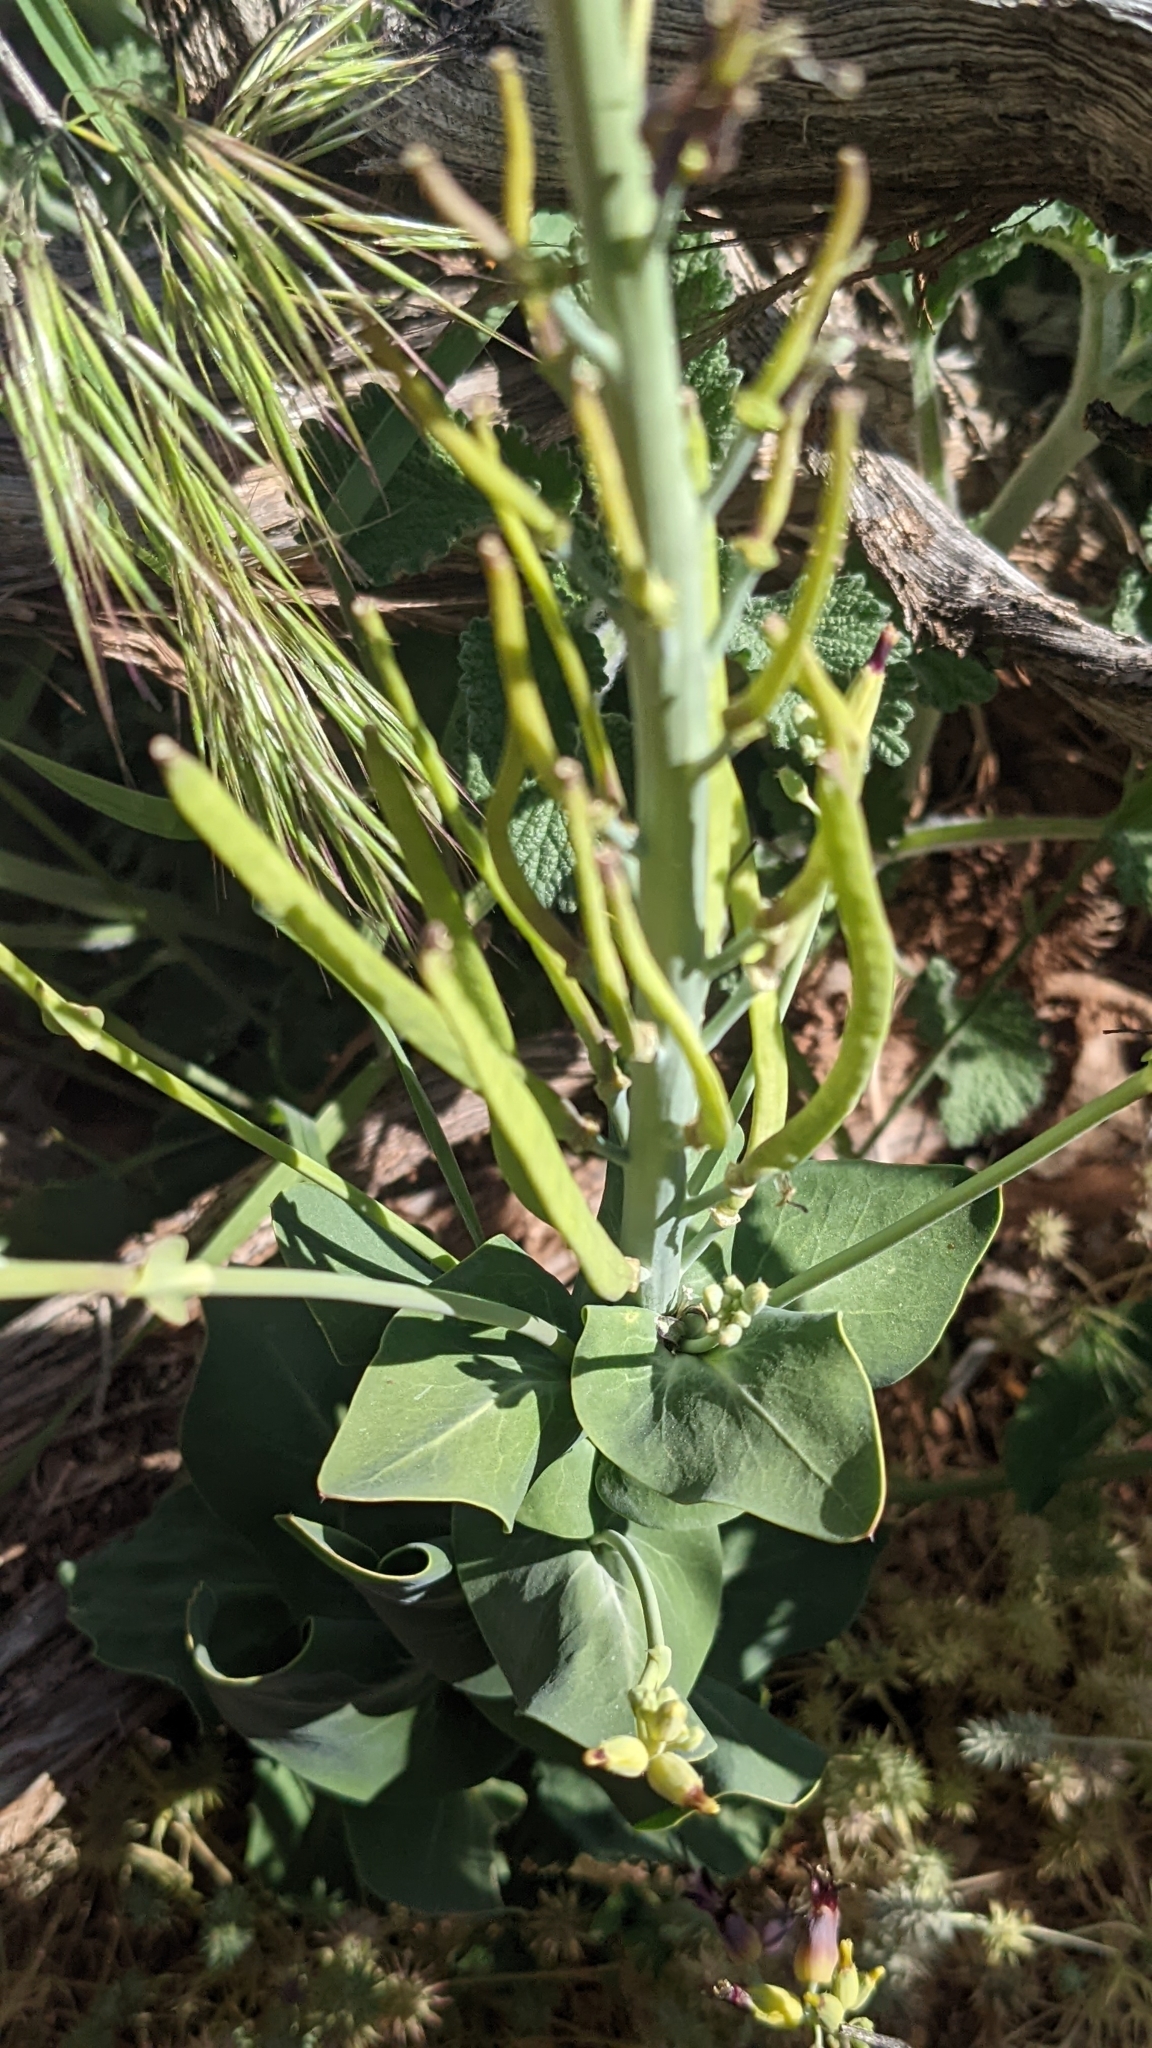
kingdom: Plantae
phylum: Tracheophyta
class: Magnoliopsida
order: Brassicales
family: Brassicaceae
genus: Streptanthus
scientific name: Streptanthus cordatus
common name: Heart-leaf jewel-flower
